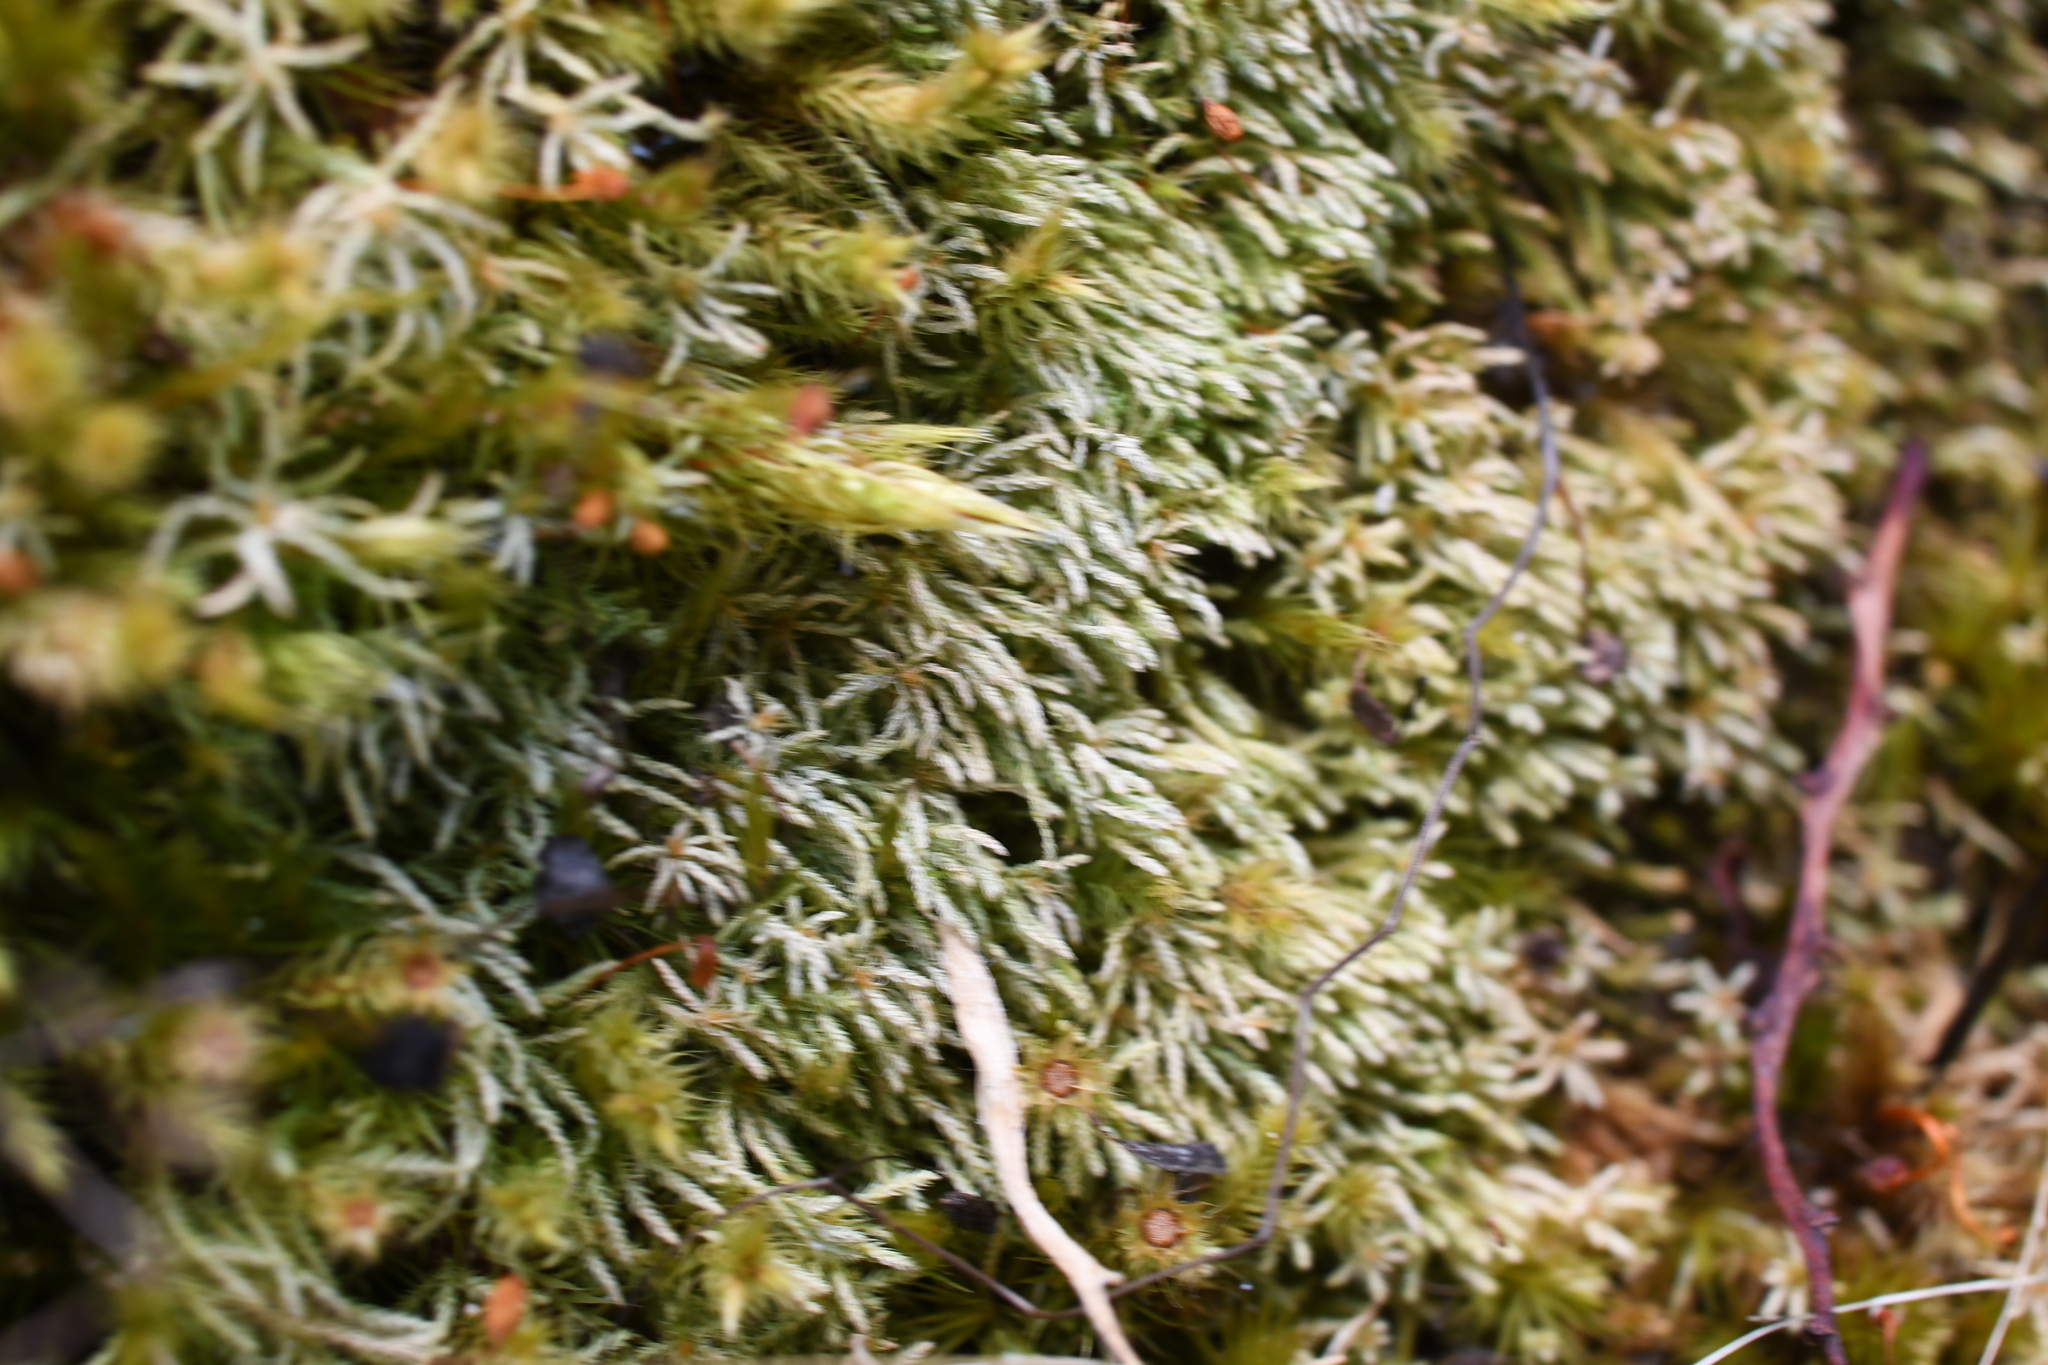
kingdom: Plantae
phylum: Bryophyta
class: Bryopsida
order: Bartramiales
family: Bartramiaceae
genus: Philonotis
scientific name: Philonotis scabrifolia
